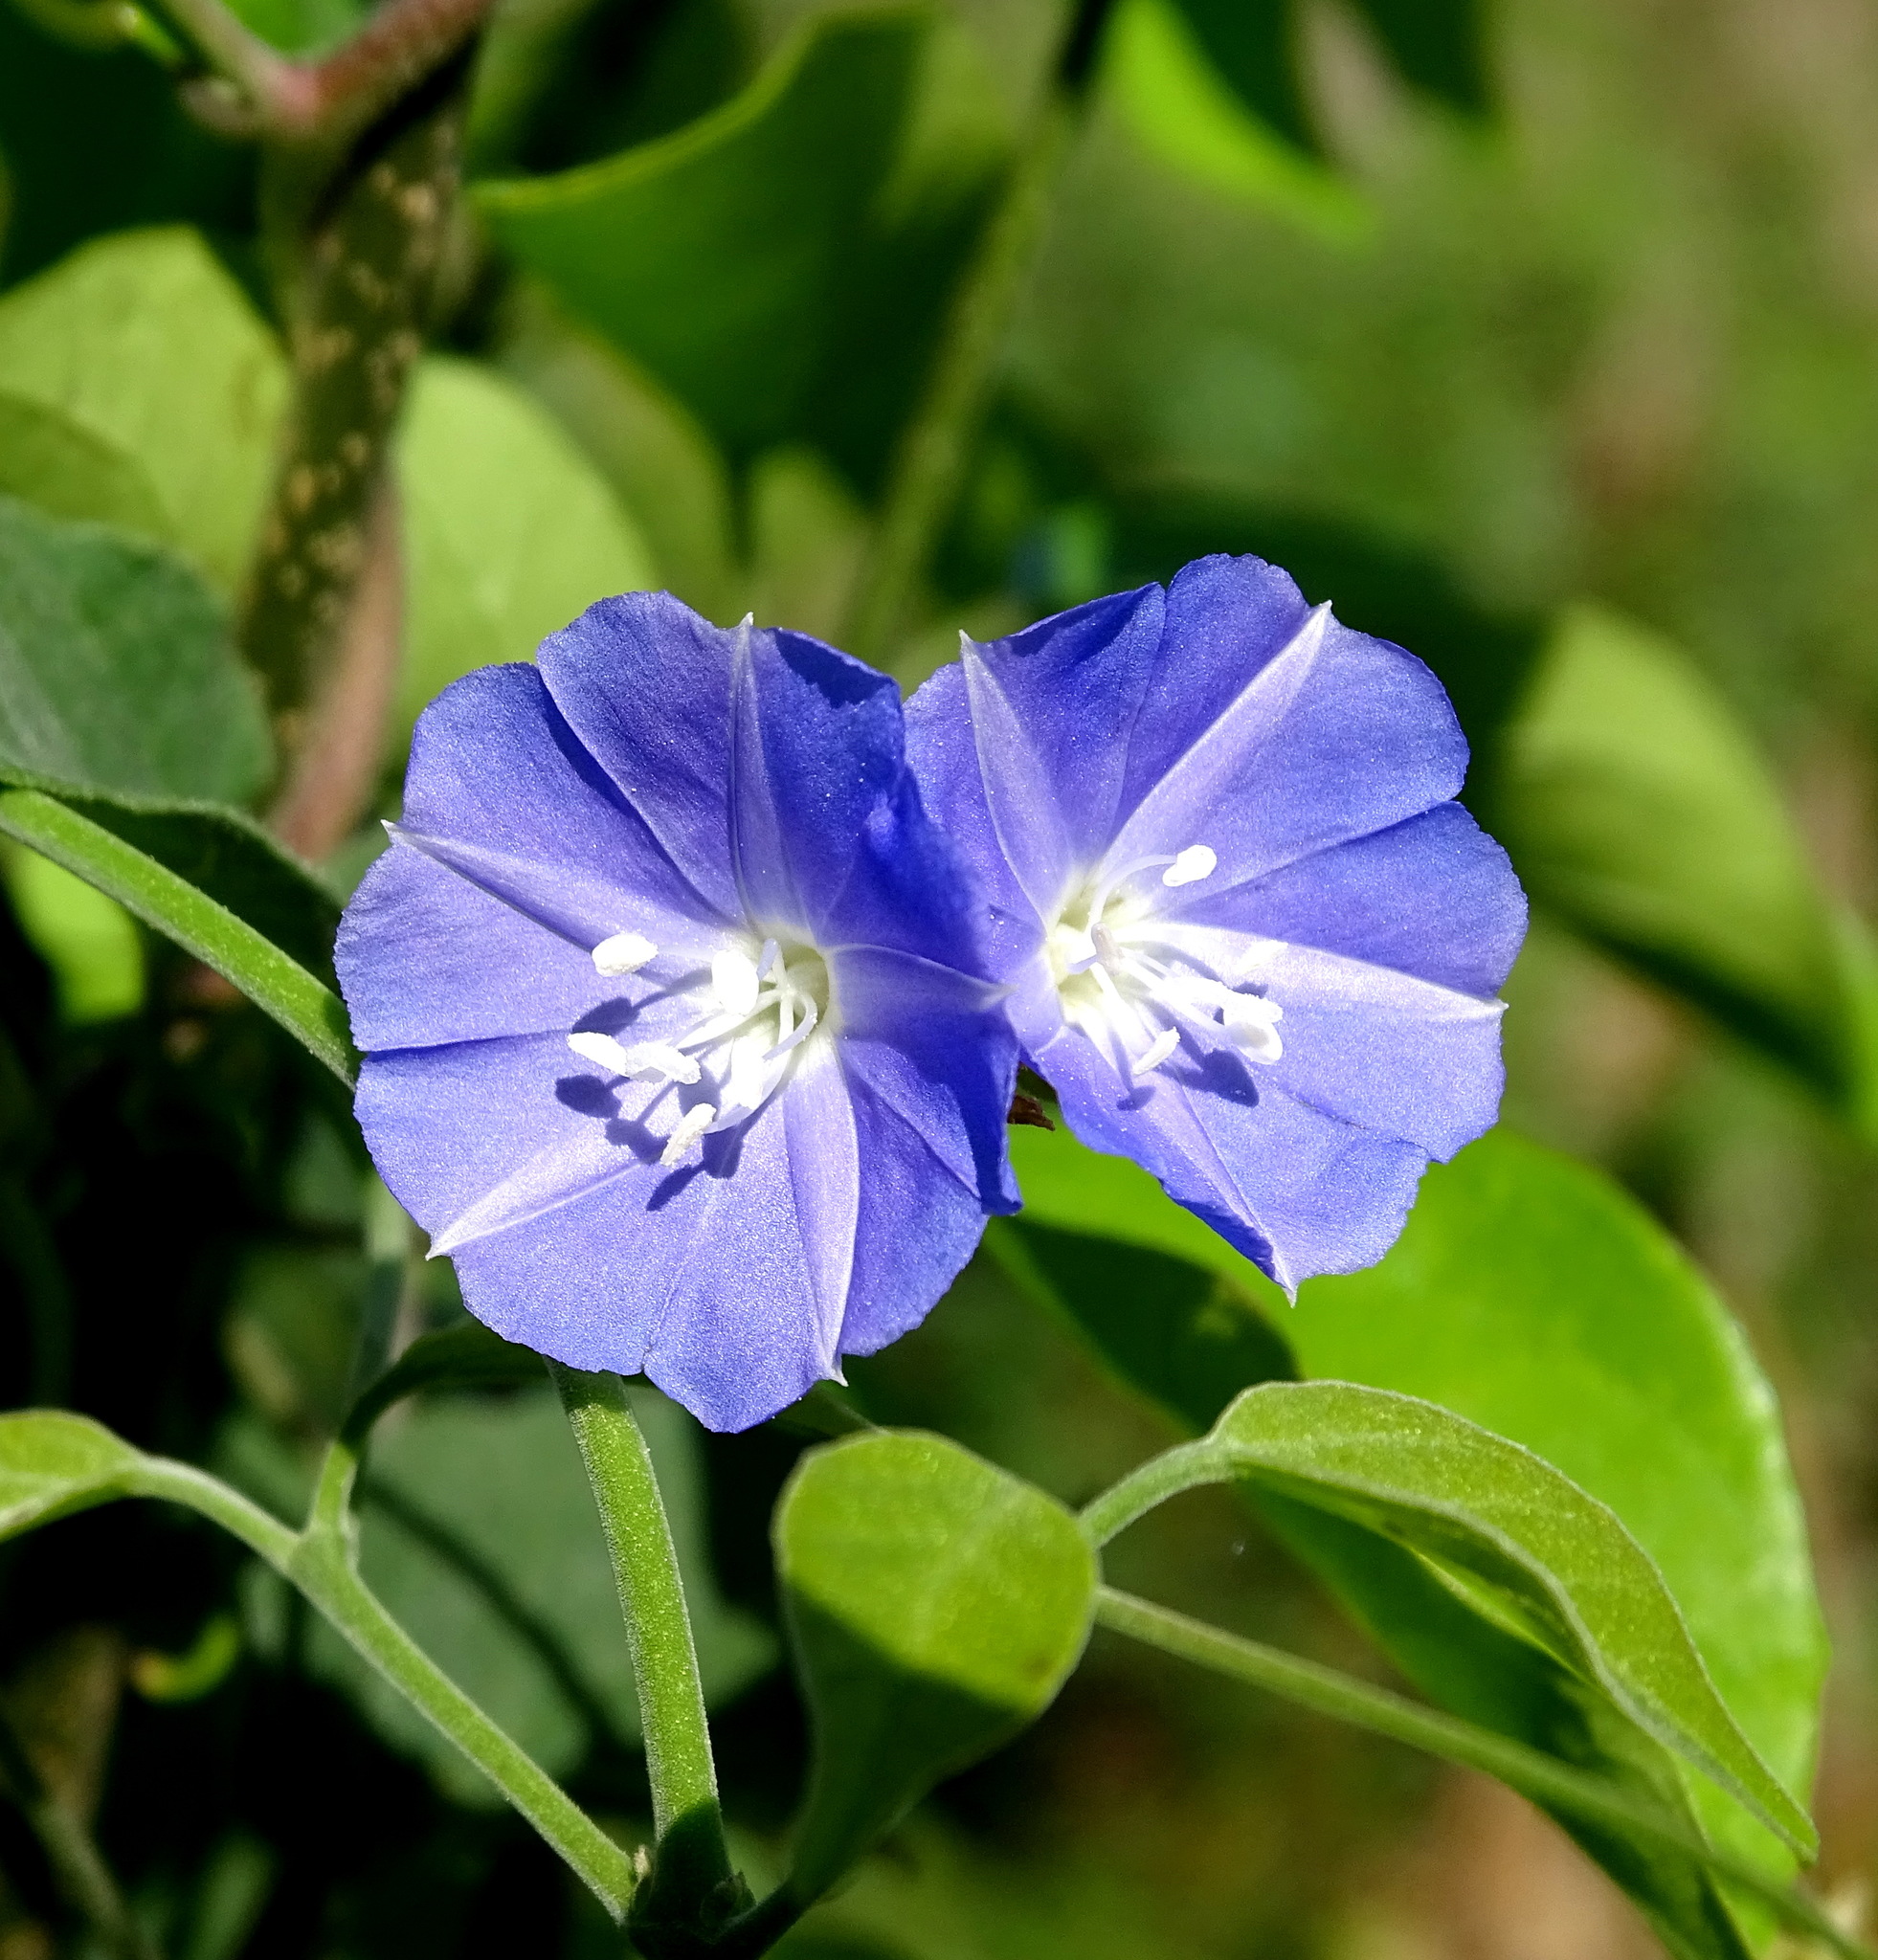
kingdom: Plantae
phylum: Tracheophyta
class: Magnoliopsida
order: Solanales
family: Convolvulaceae
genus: Jacquemontia
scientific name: Jacquemontia pentanthos
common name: Skyblue clustervine
